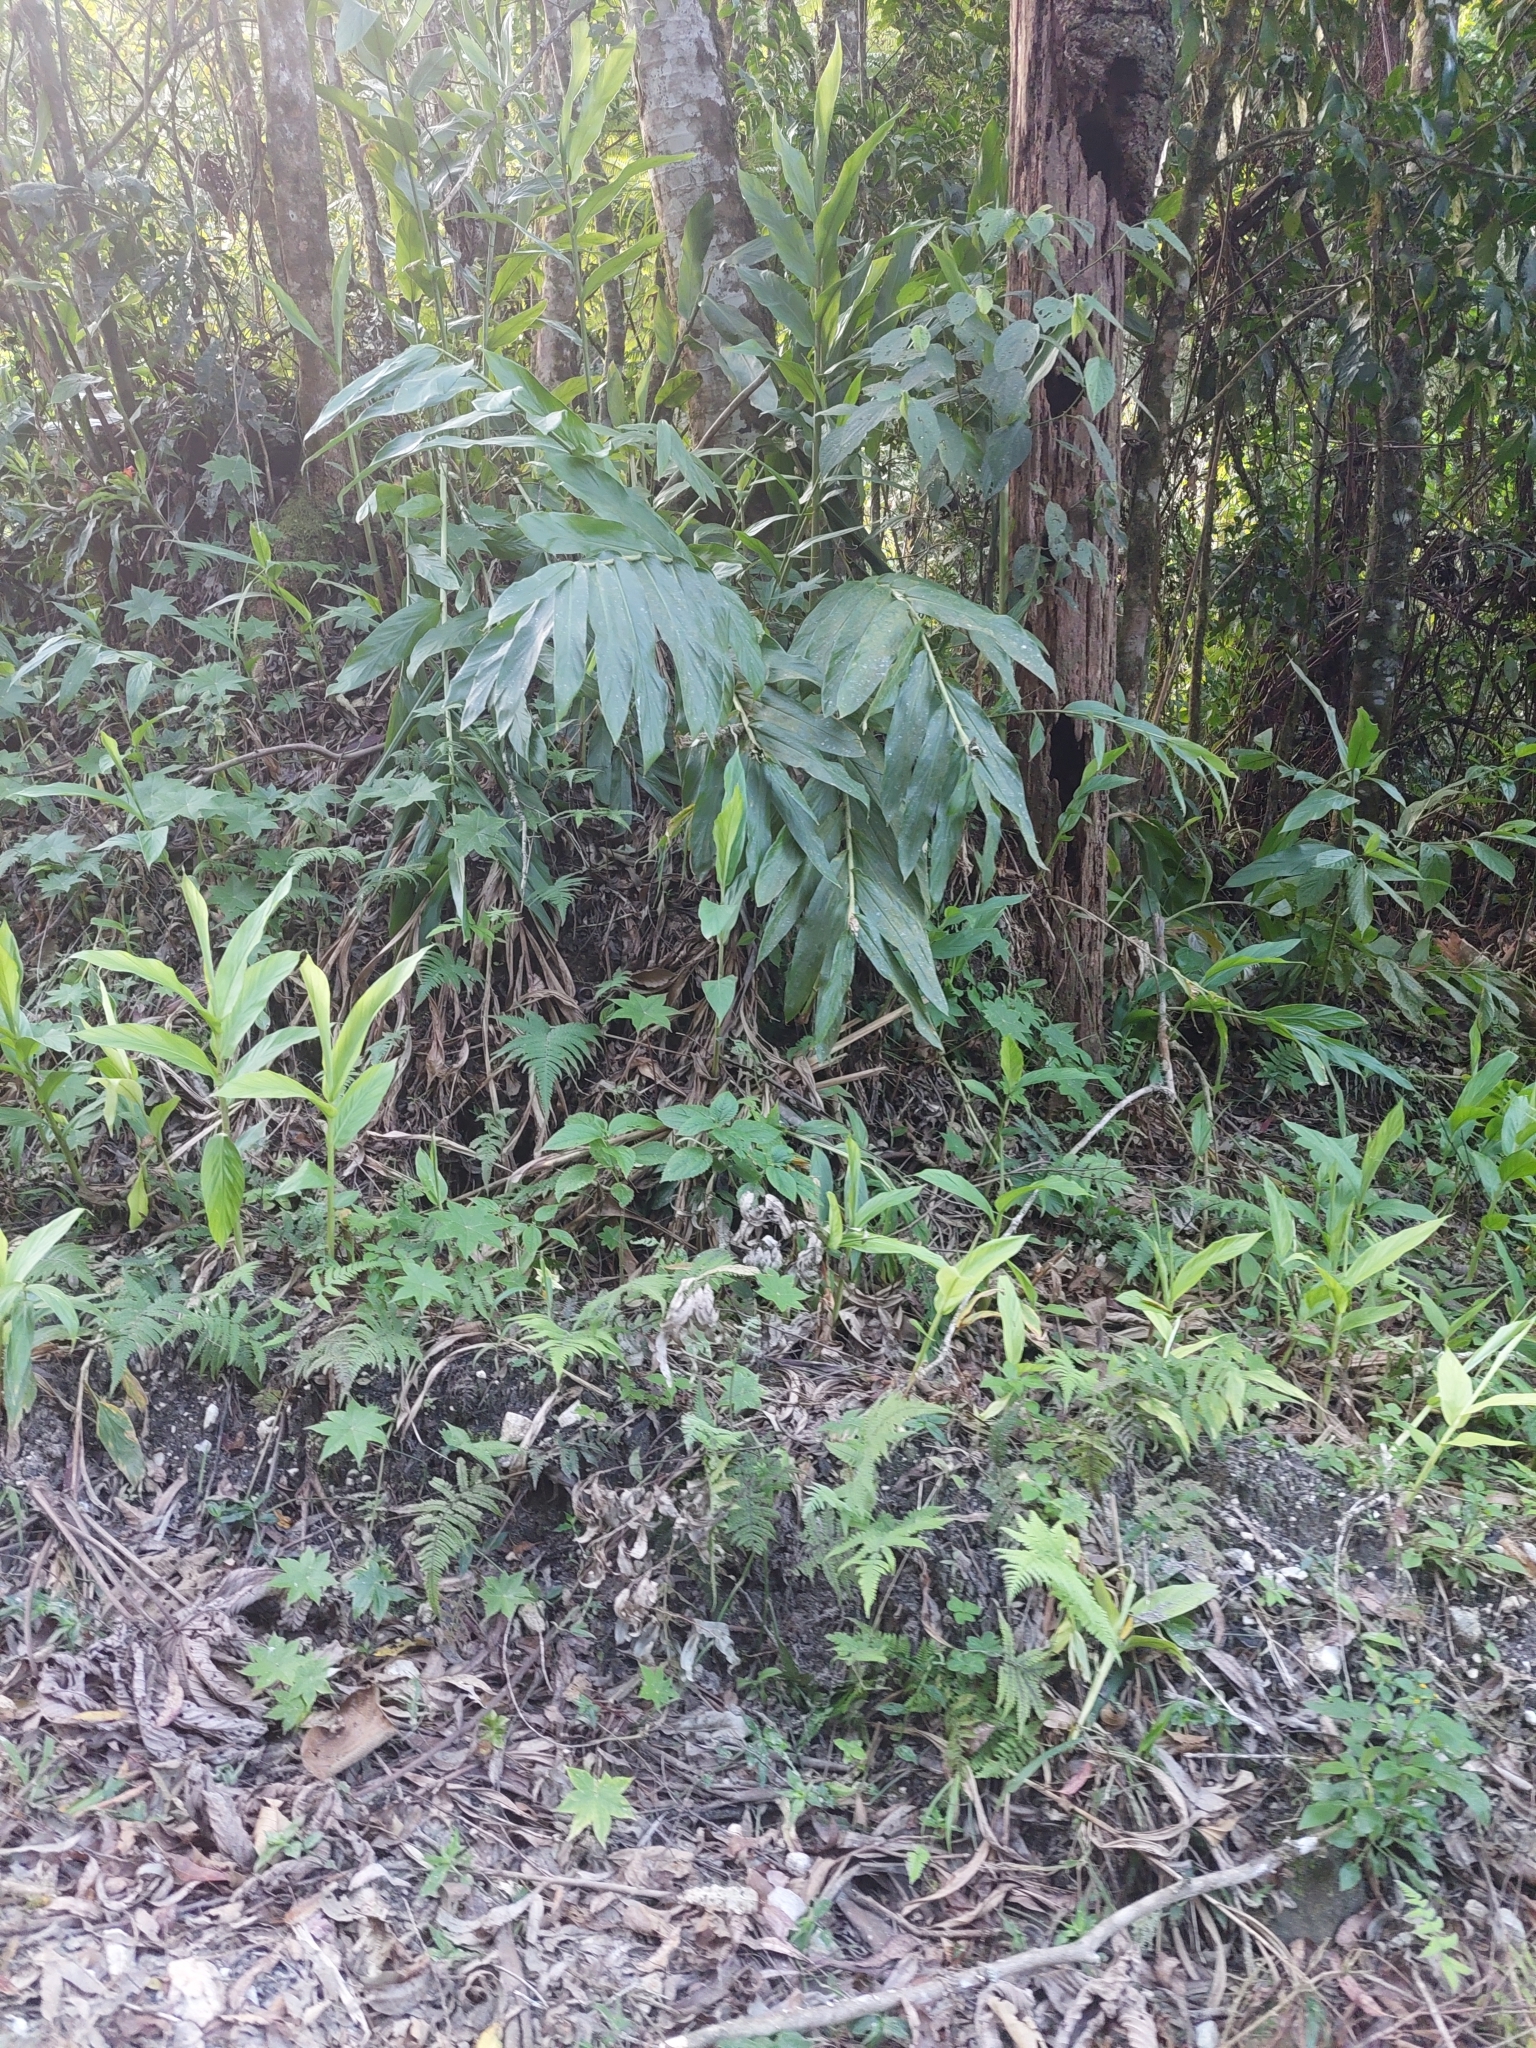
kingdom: Plantae
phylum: Tracheophyta
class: Liliopsida
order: Zingiberales
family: Zingiberaceae
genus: Hedychium
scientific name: Hedychium coronarium
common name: White garland-lily
